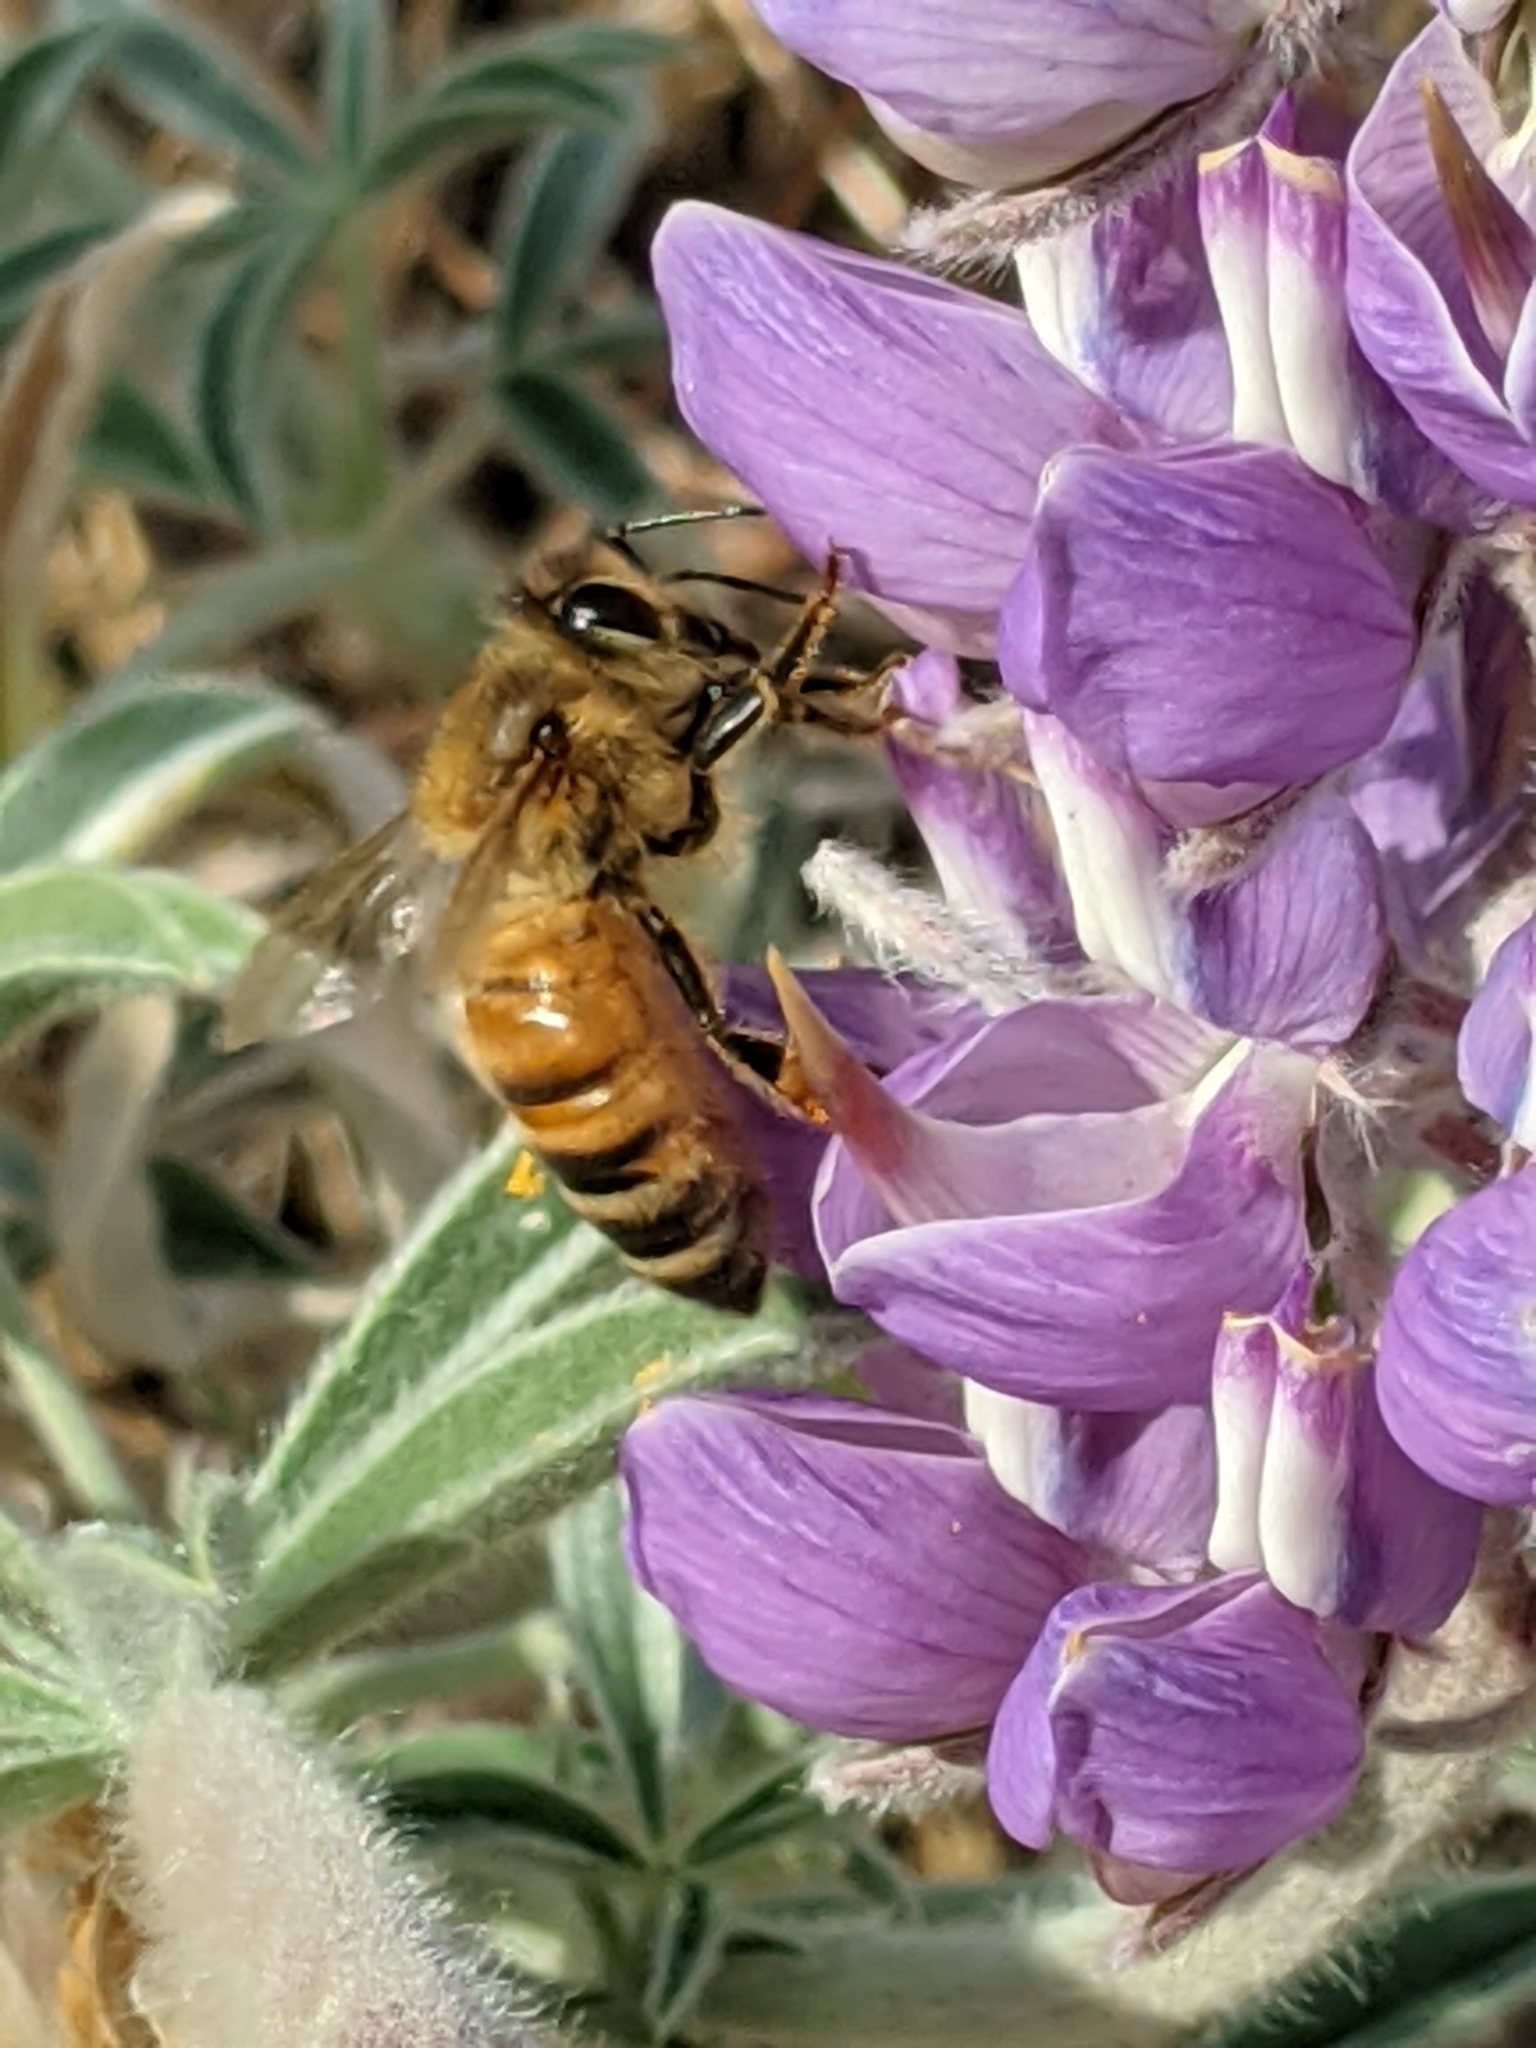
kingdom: Animalia
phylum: Arthropoda
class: Insecta
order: Hymenoptera
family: Apidae
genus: Apis
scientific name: Apis mellifera
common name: Honey bee
